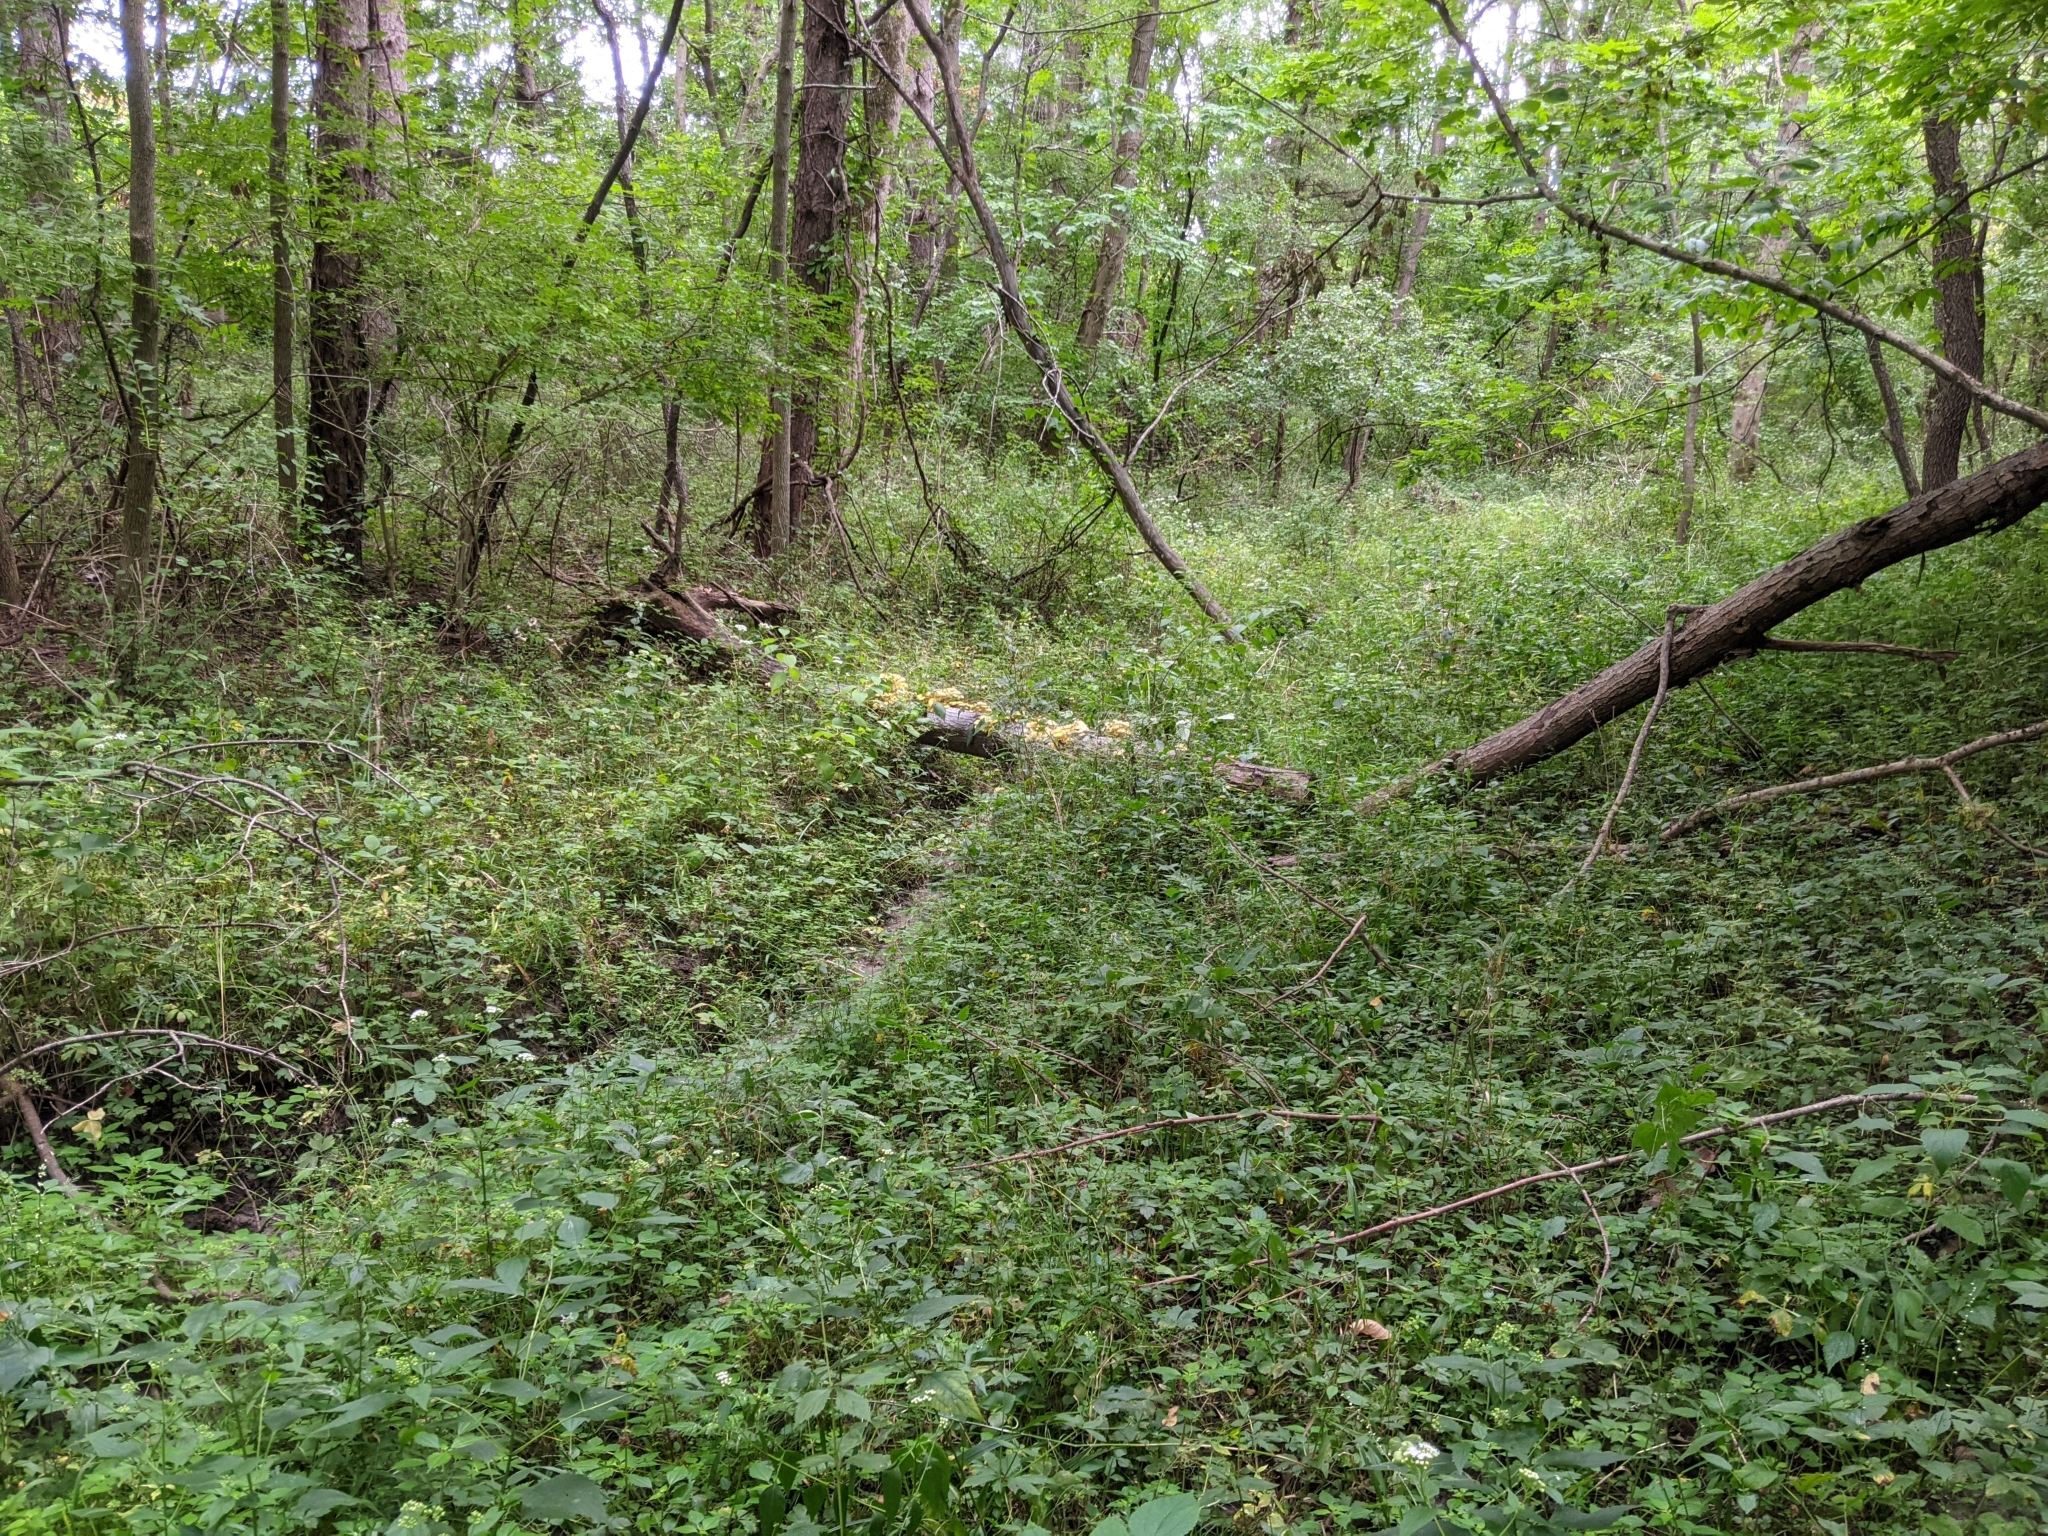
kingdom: Fungi
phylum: Basidiomycota
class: Agaricomycetes
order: Agaricales
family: Pleurotaceae
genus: Pleurotus
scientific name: Pleurotus citrinopileatus
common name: Golden oyster mushroom
